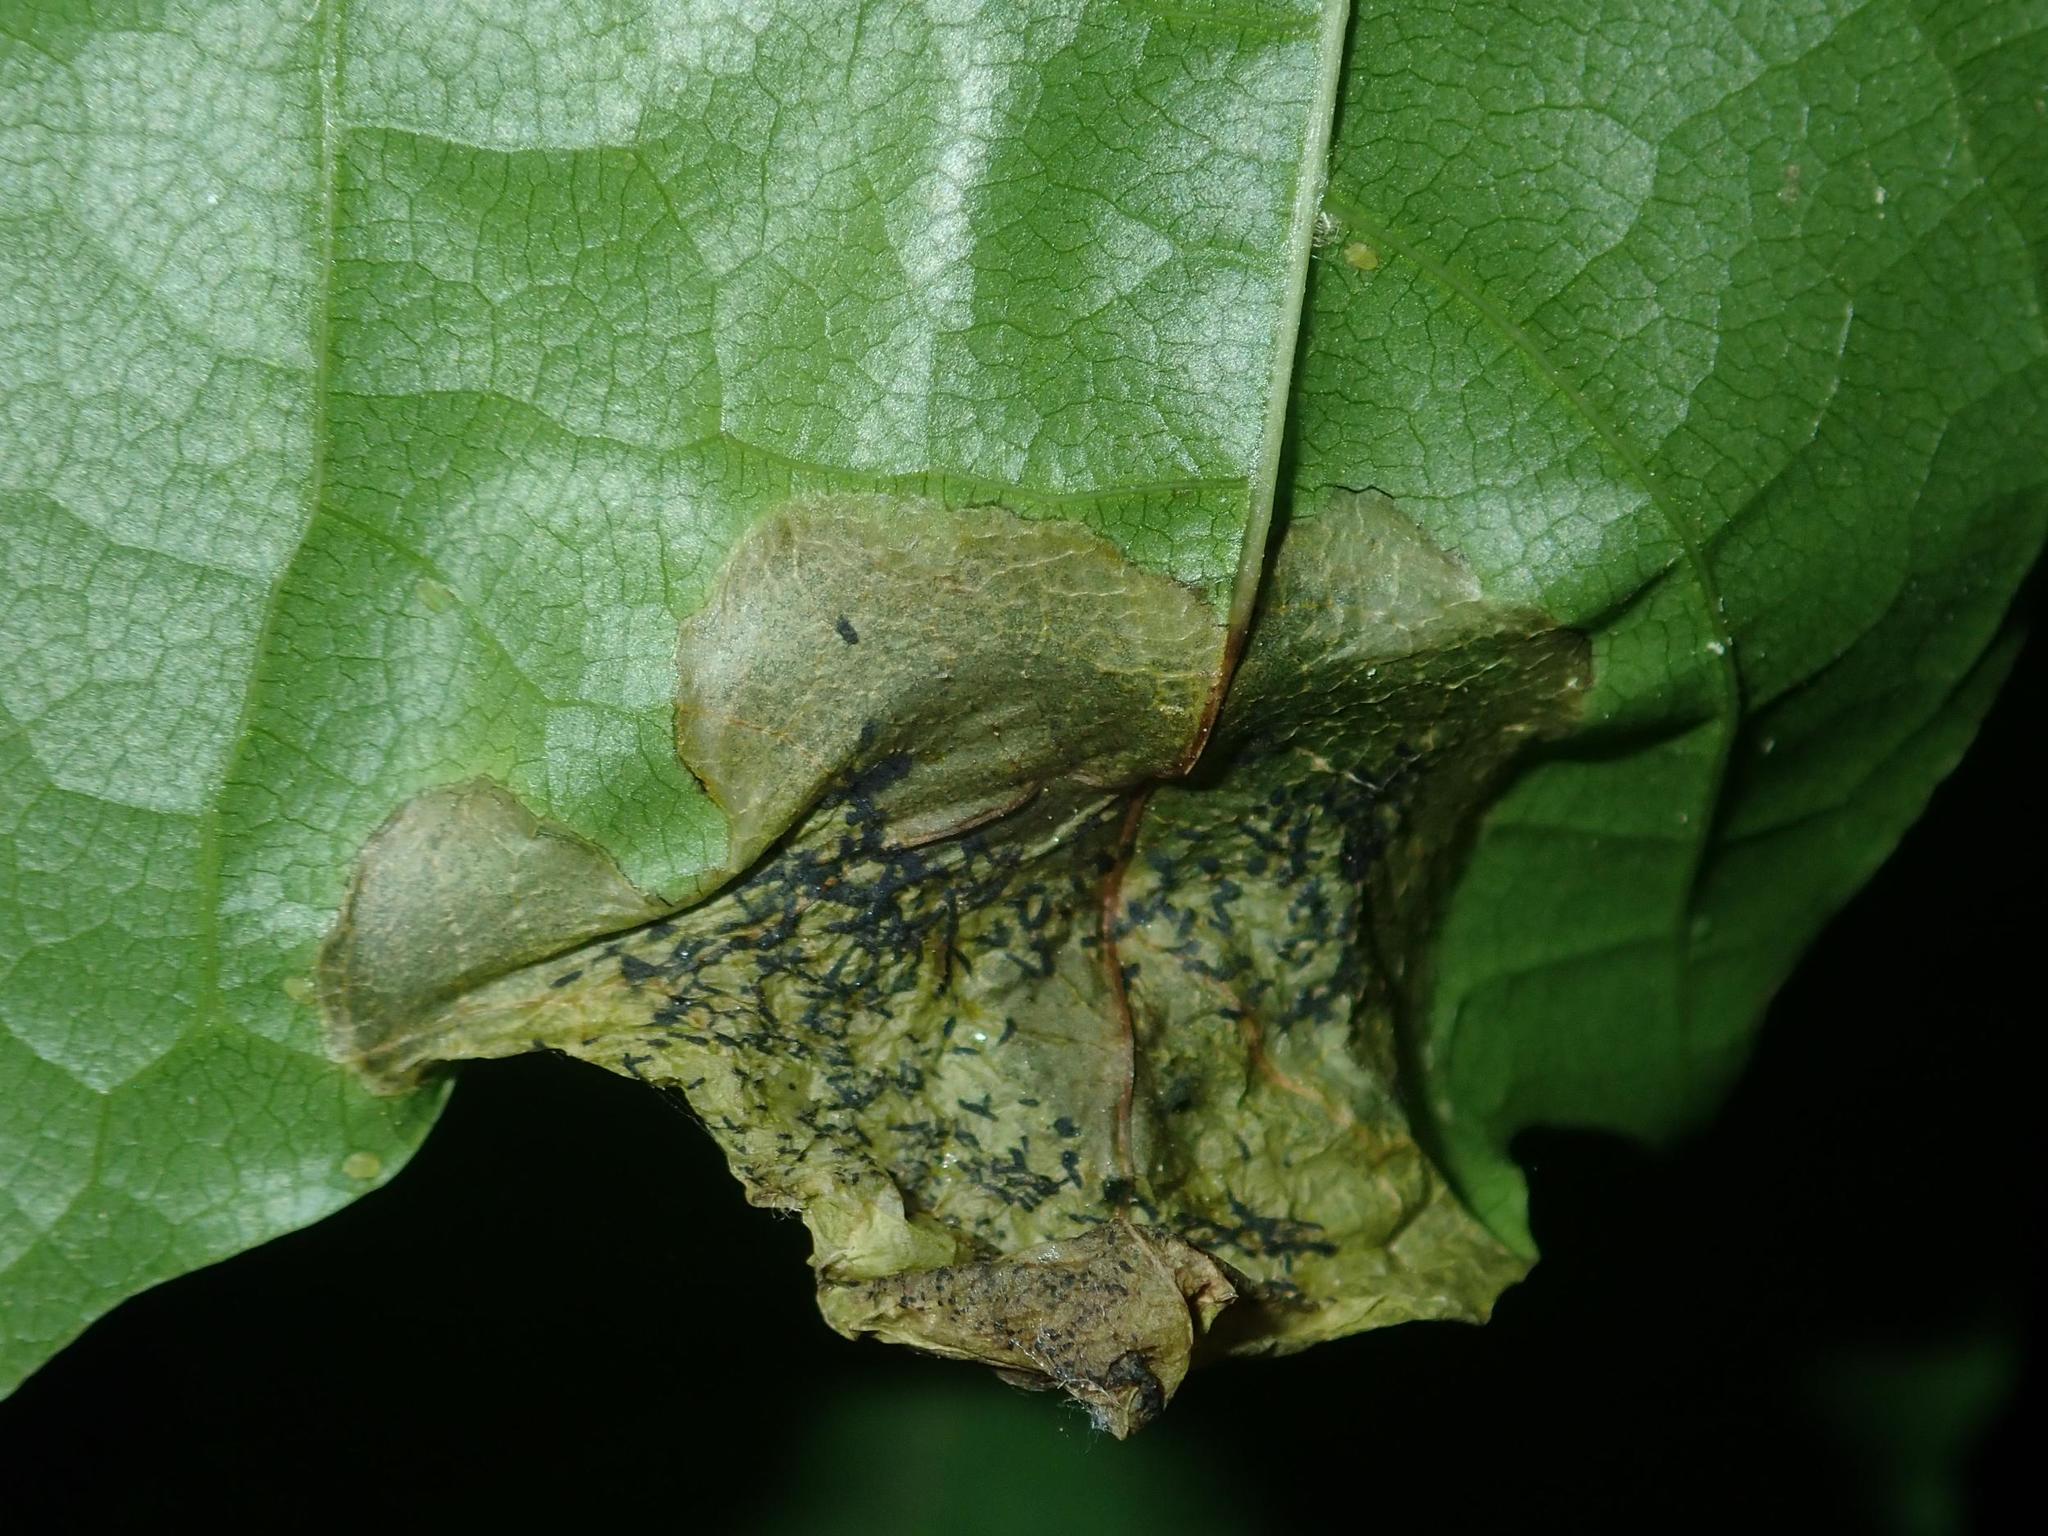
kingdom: Animalia
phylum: Arthropoda
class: Insecta
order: Hymenoptera
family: Tenthredinidae
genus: Hinatara
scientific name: Hinatara recta
